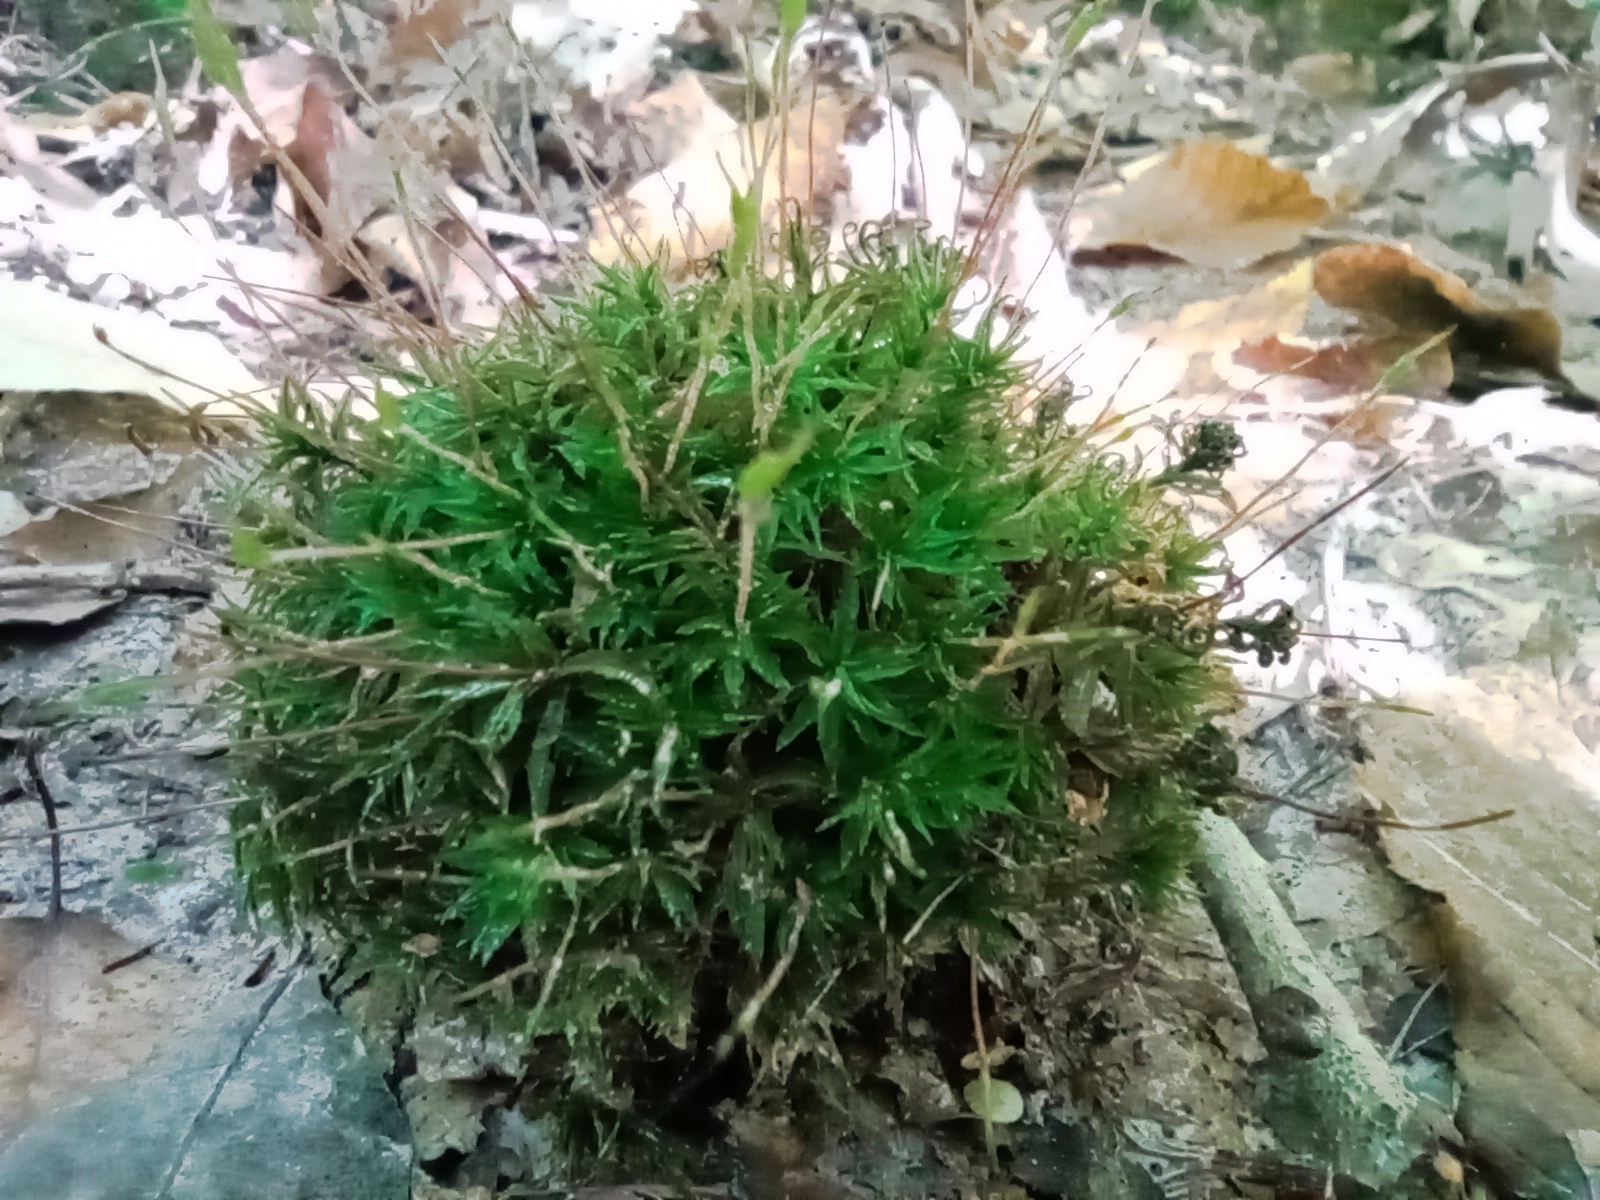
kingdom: Plantae
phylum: Bryophyta
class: Polytrichopsida
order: Polytrichales
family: Polytrichaceae
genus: Atrichum
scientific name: Atrichum undulatum
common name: Common smoothcap
